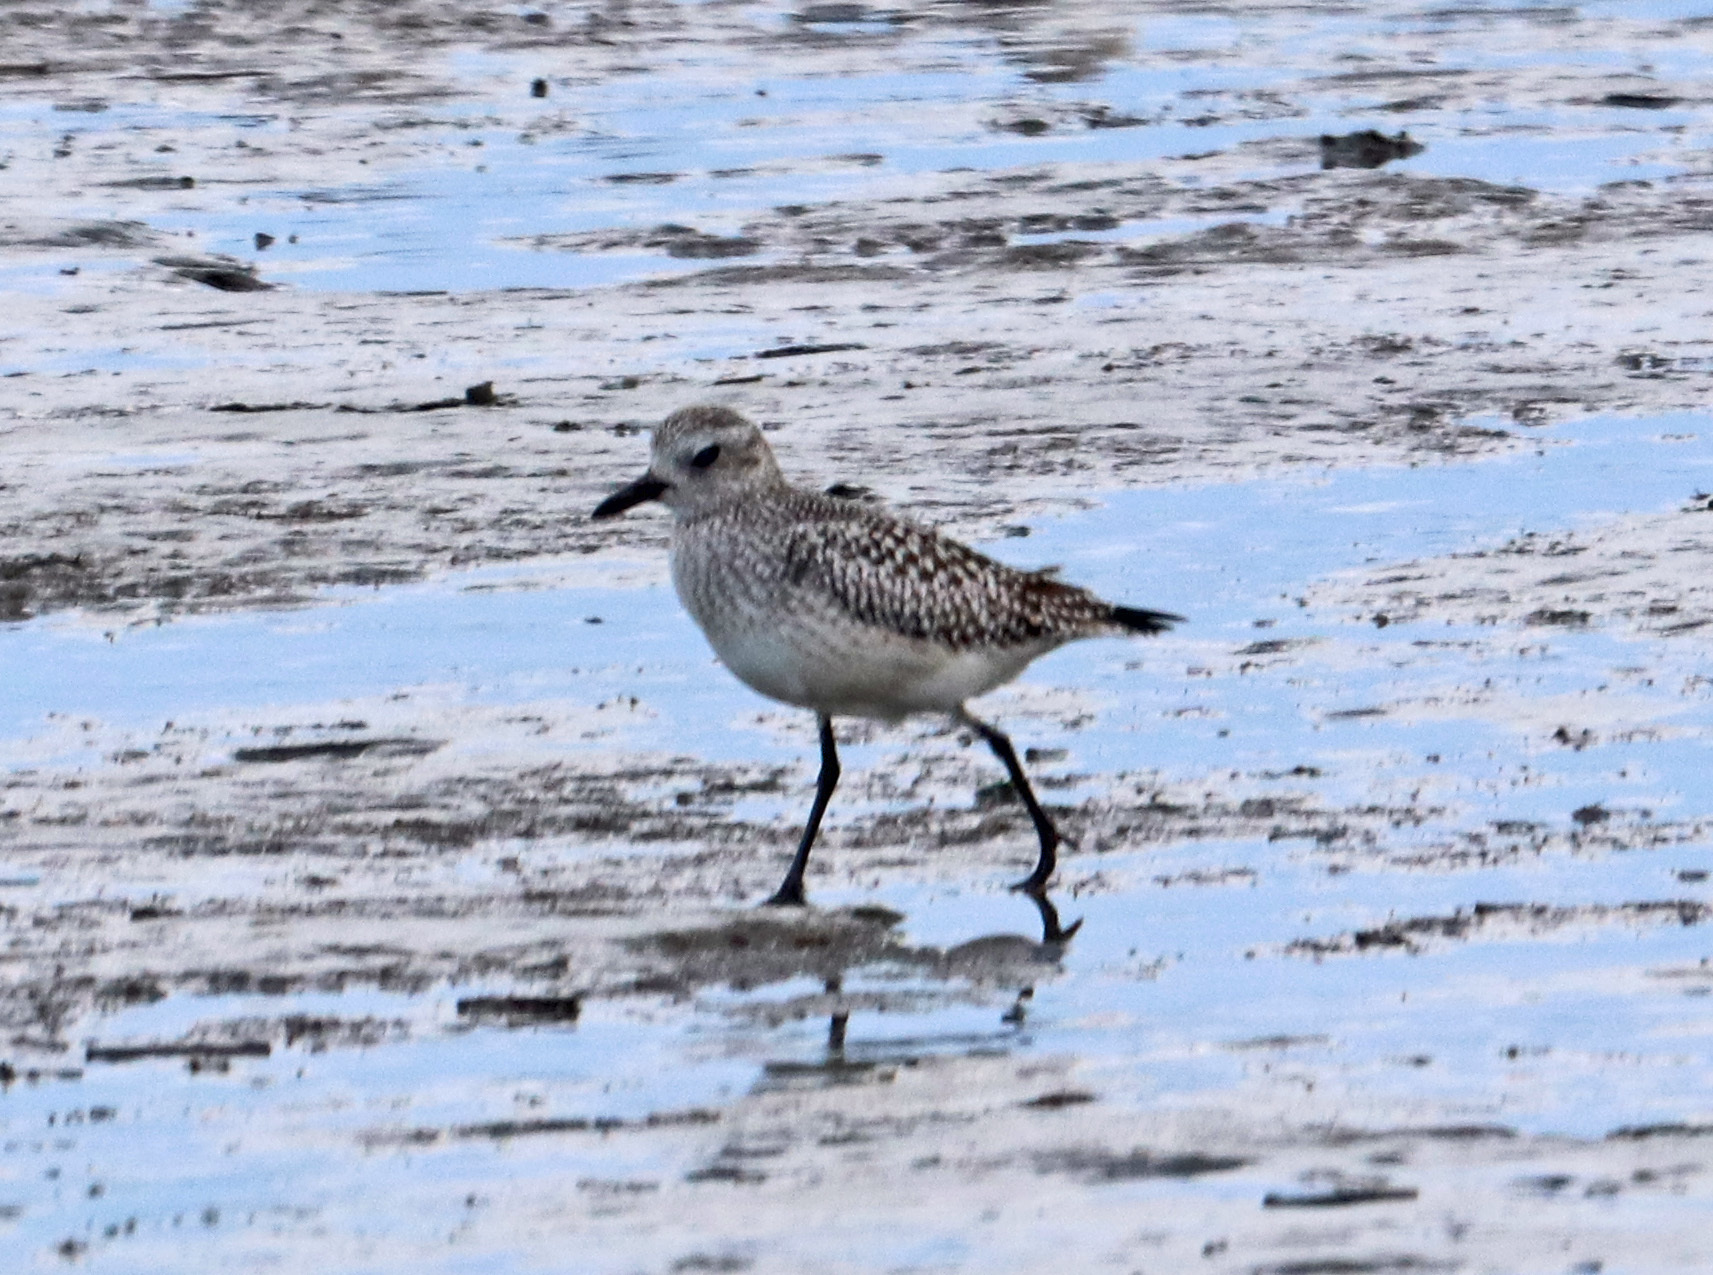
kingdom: Animalia
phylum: Chordata
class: Aves
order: Charadriiformes
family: Charadriidae
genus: Pluvialis
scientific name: Pluvialis squatarola
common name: Grey plover
